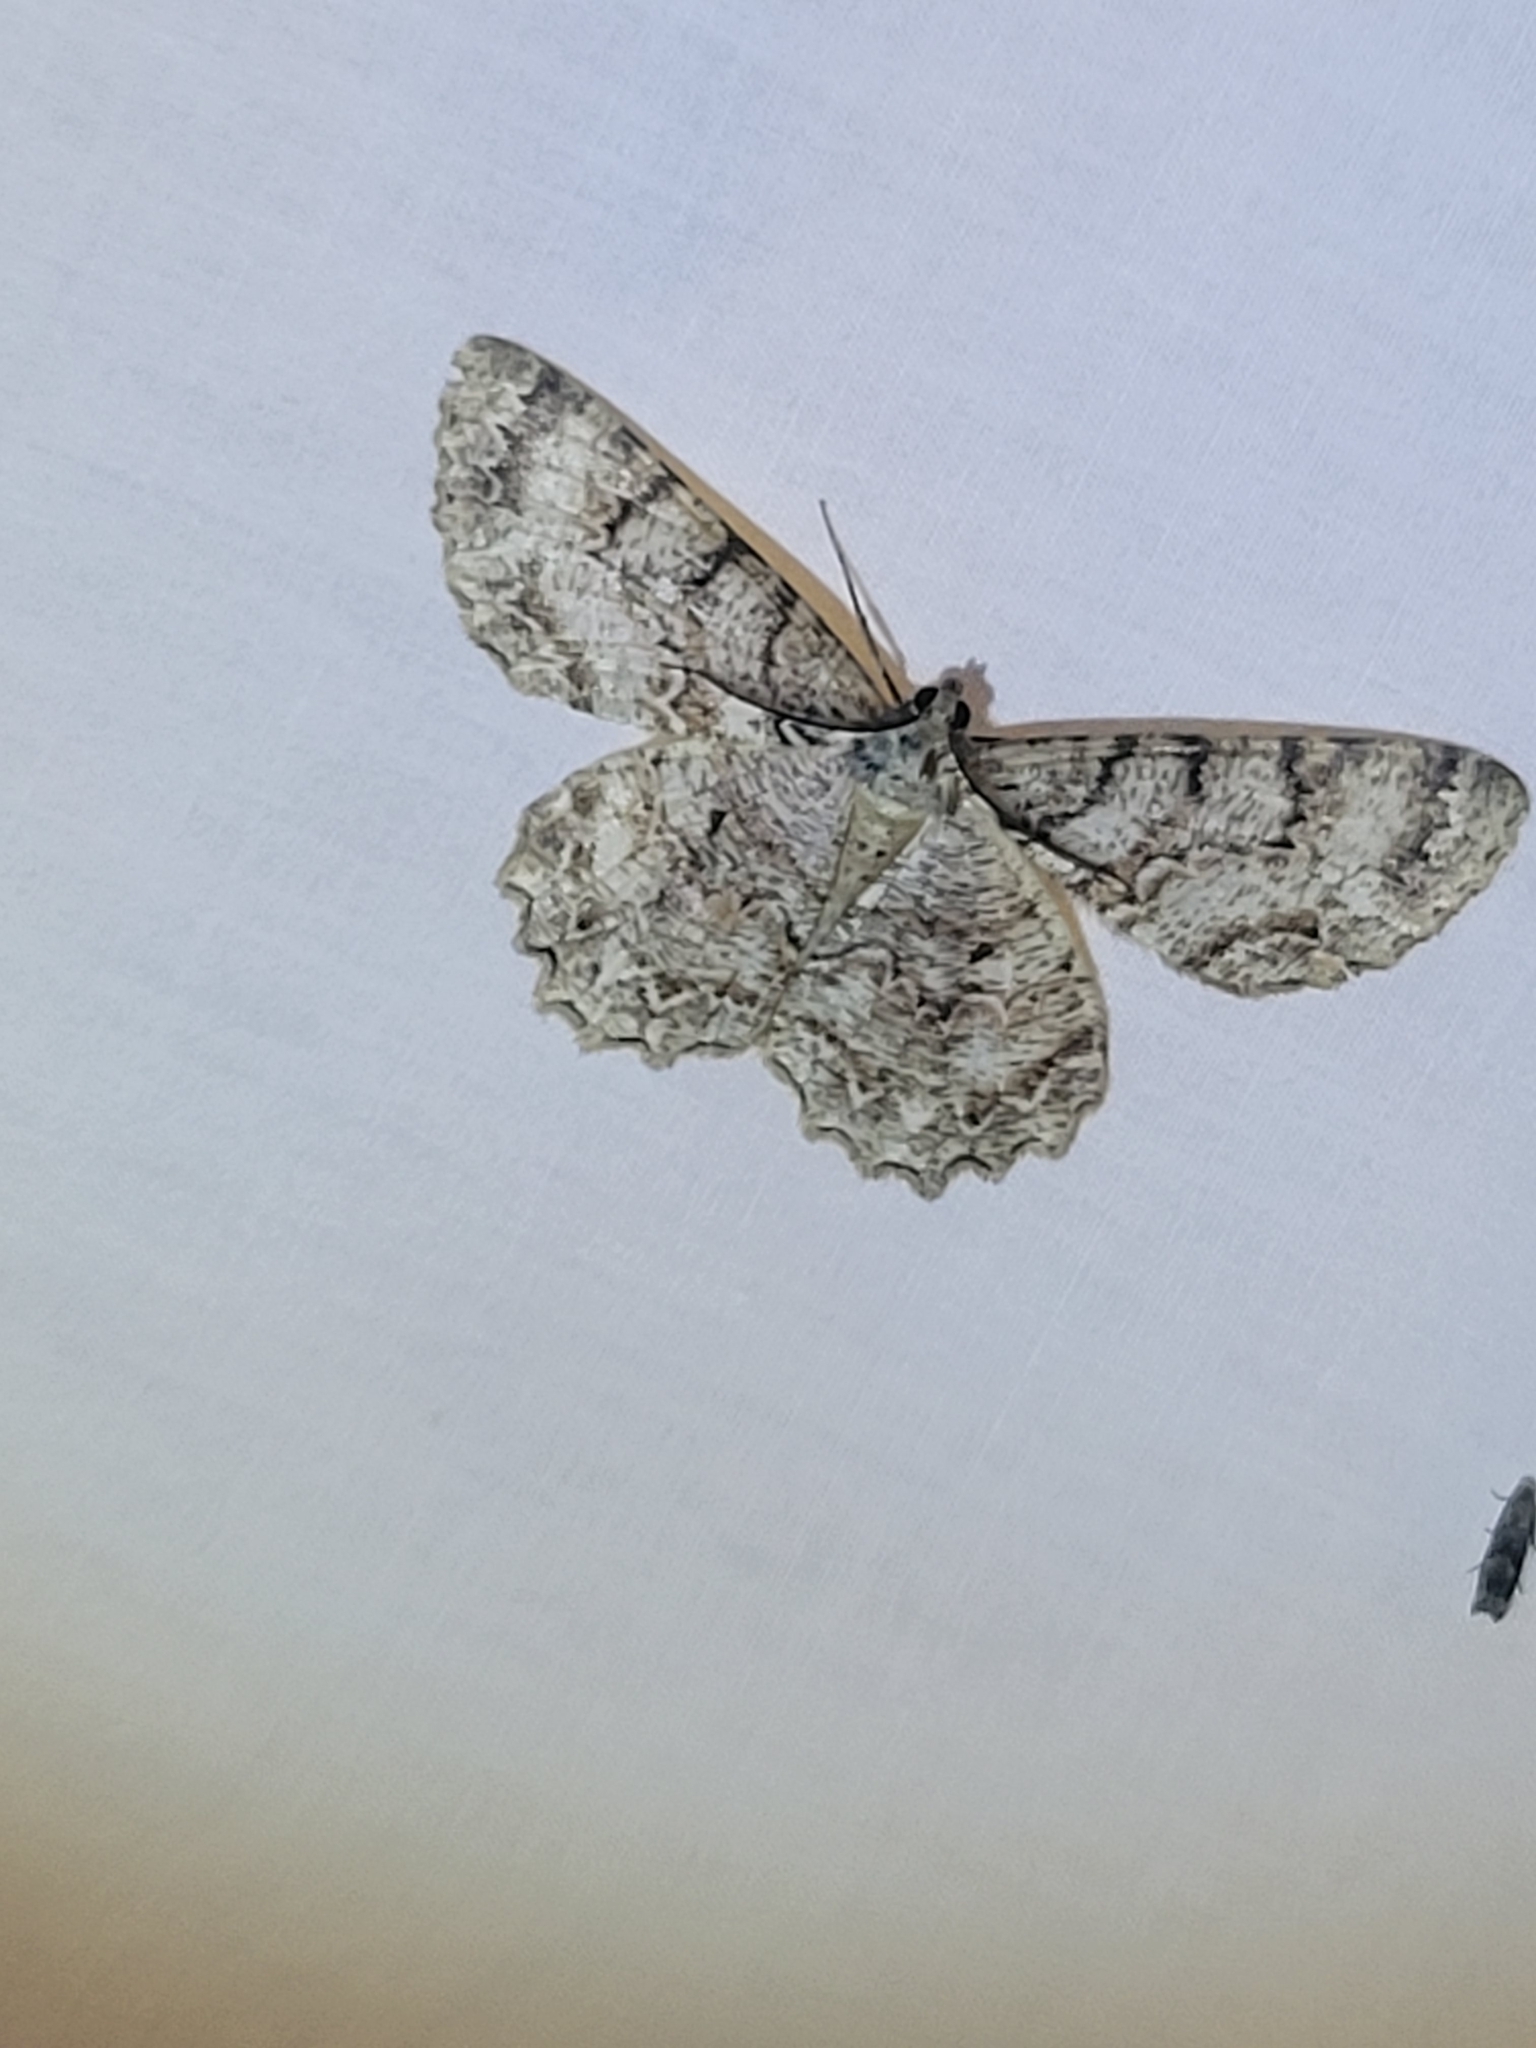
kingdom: Animalia
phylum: Arthropoda
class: Insecta
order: Lepidoptera
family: Geometridae
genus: Epimecis
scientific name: Epimecis hortaria
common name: Tulip-tree beauty
